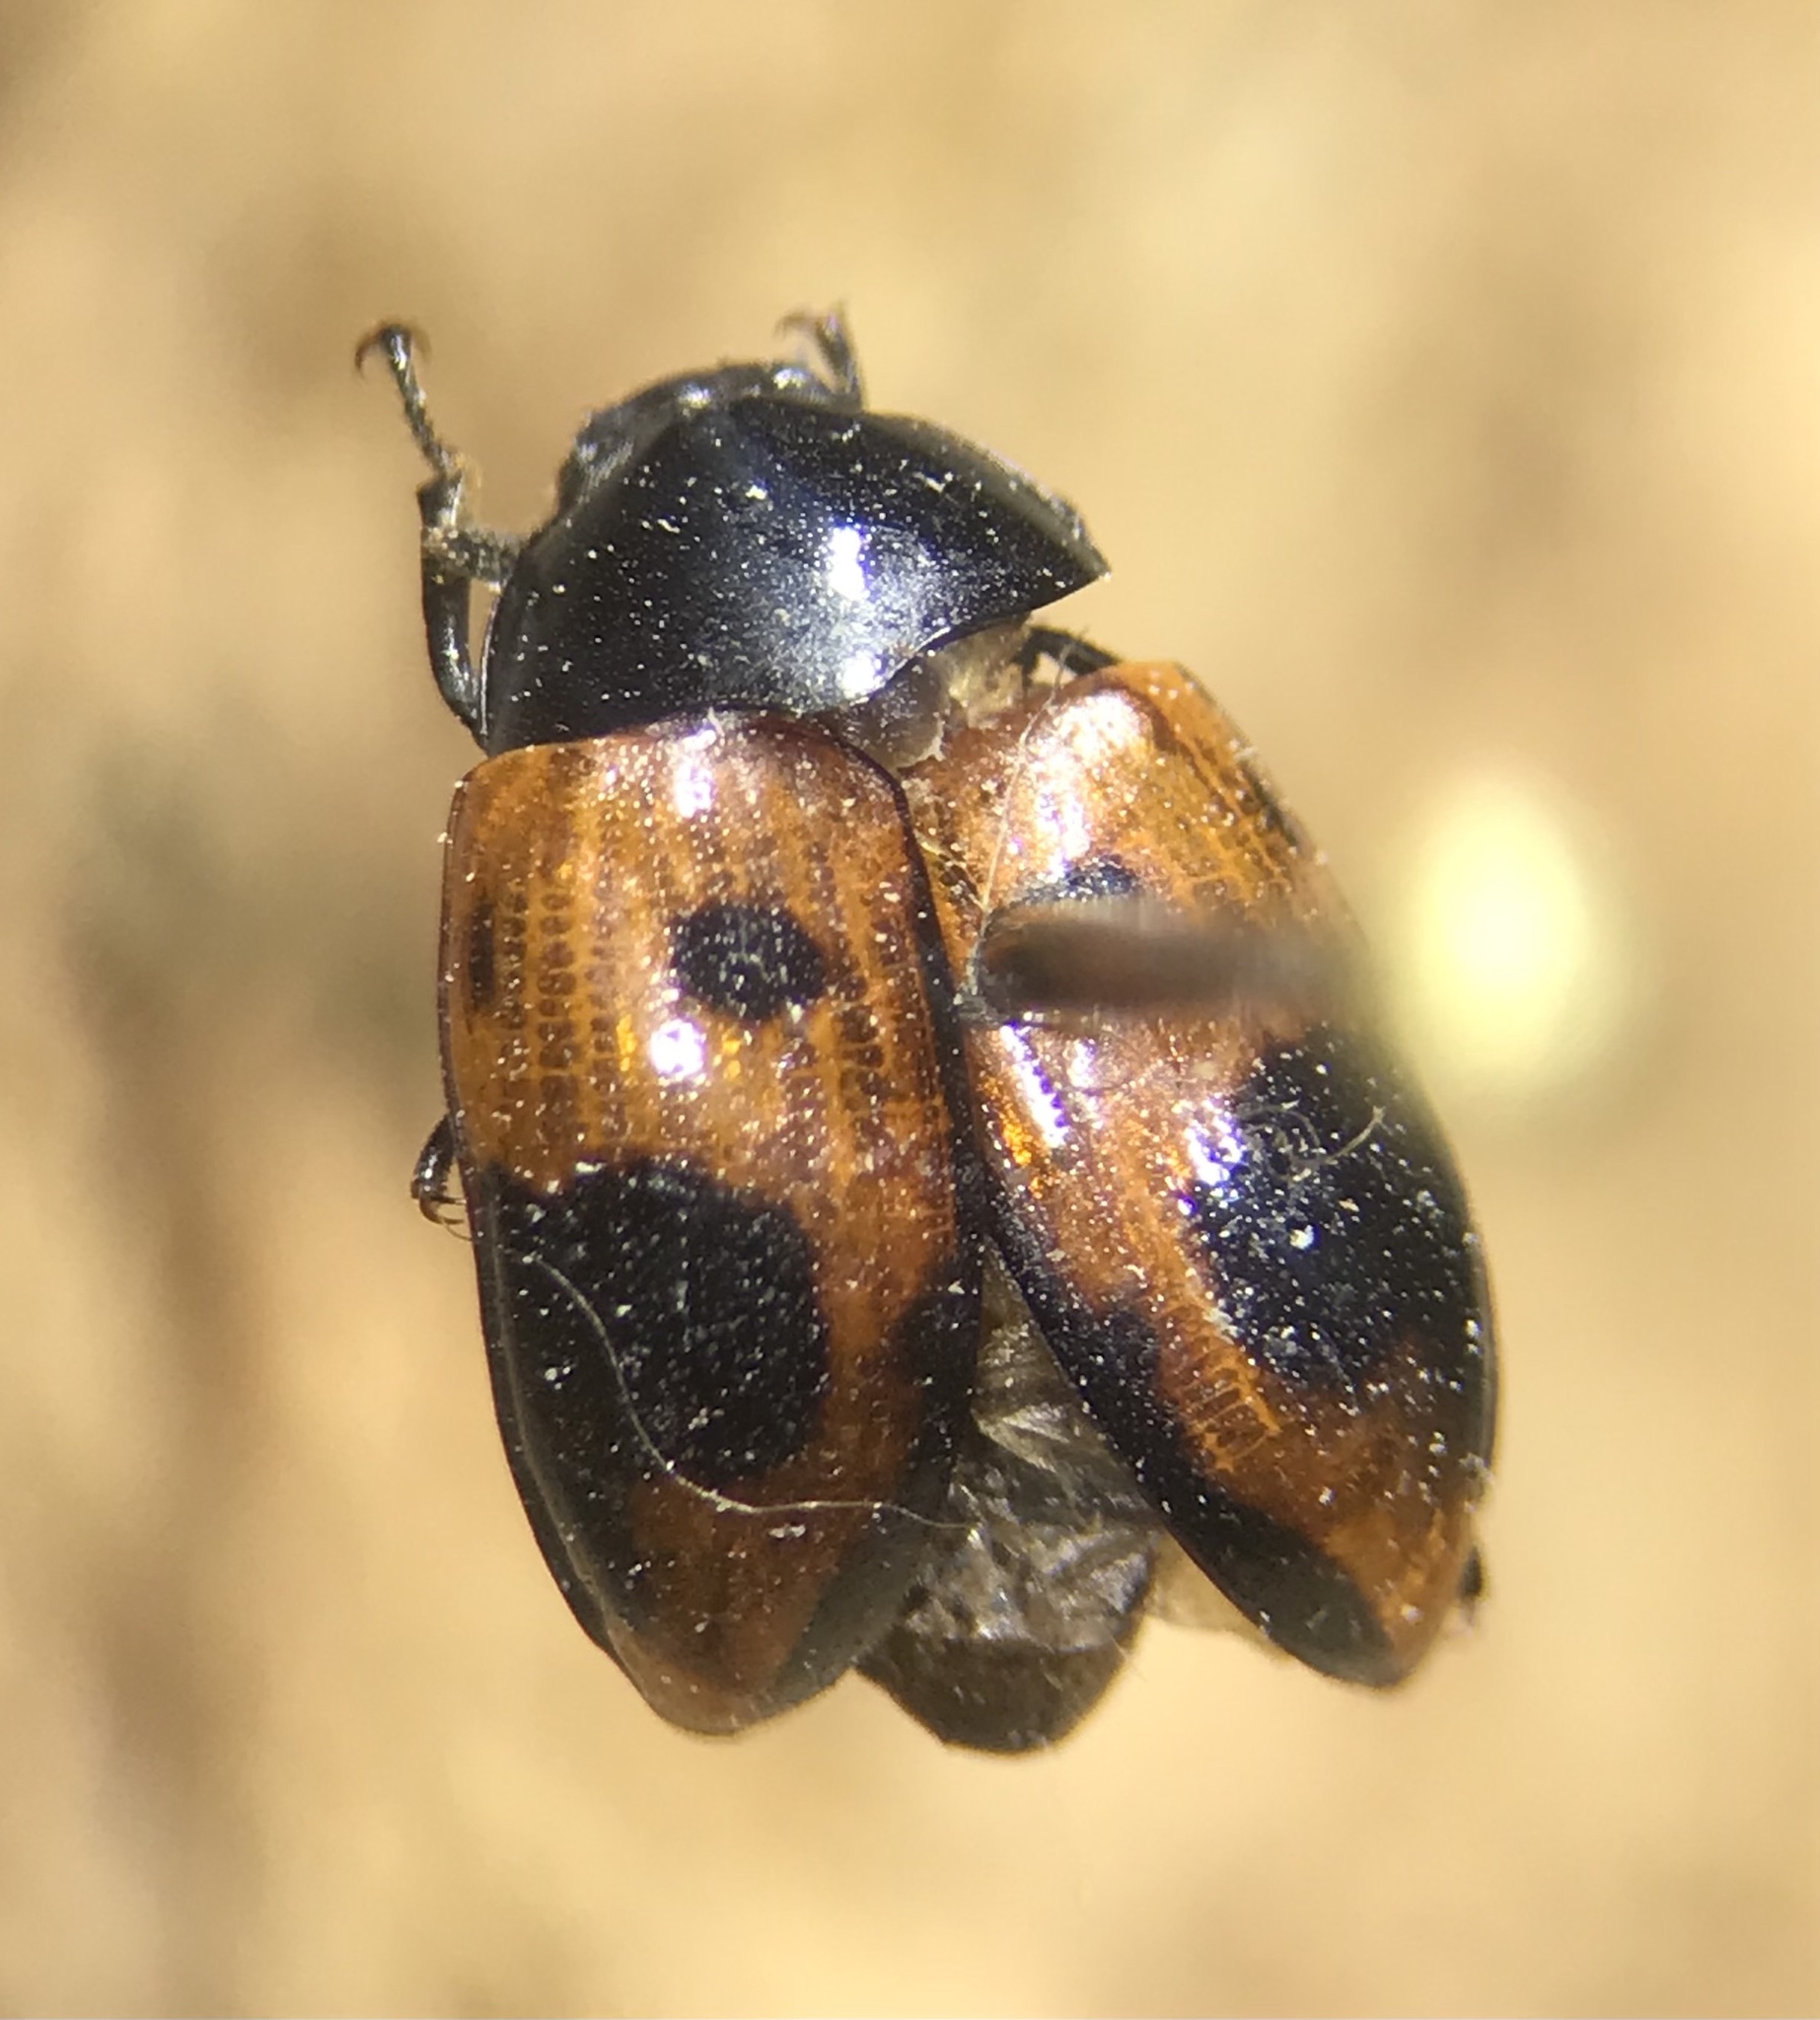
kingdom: Animalia
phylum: Arthropoda
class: Insecta
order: Coleoptera
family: Tenebrionidae
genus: Diaperis
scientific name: Diaperis maculata
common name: Darkling beetle
